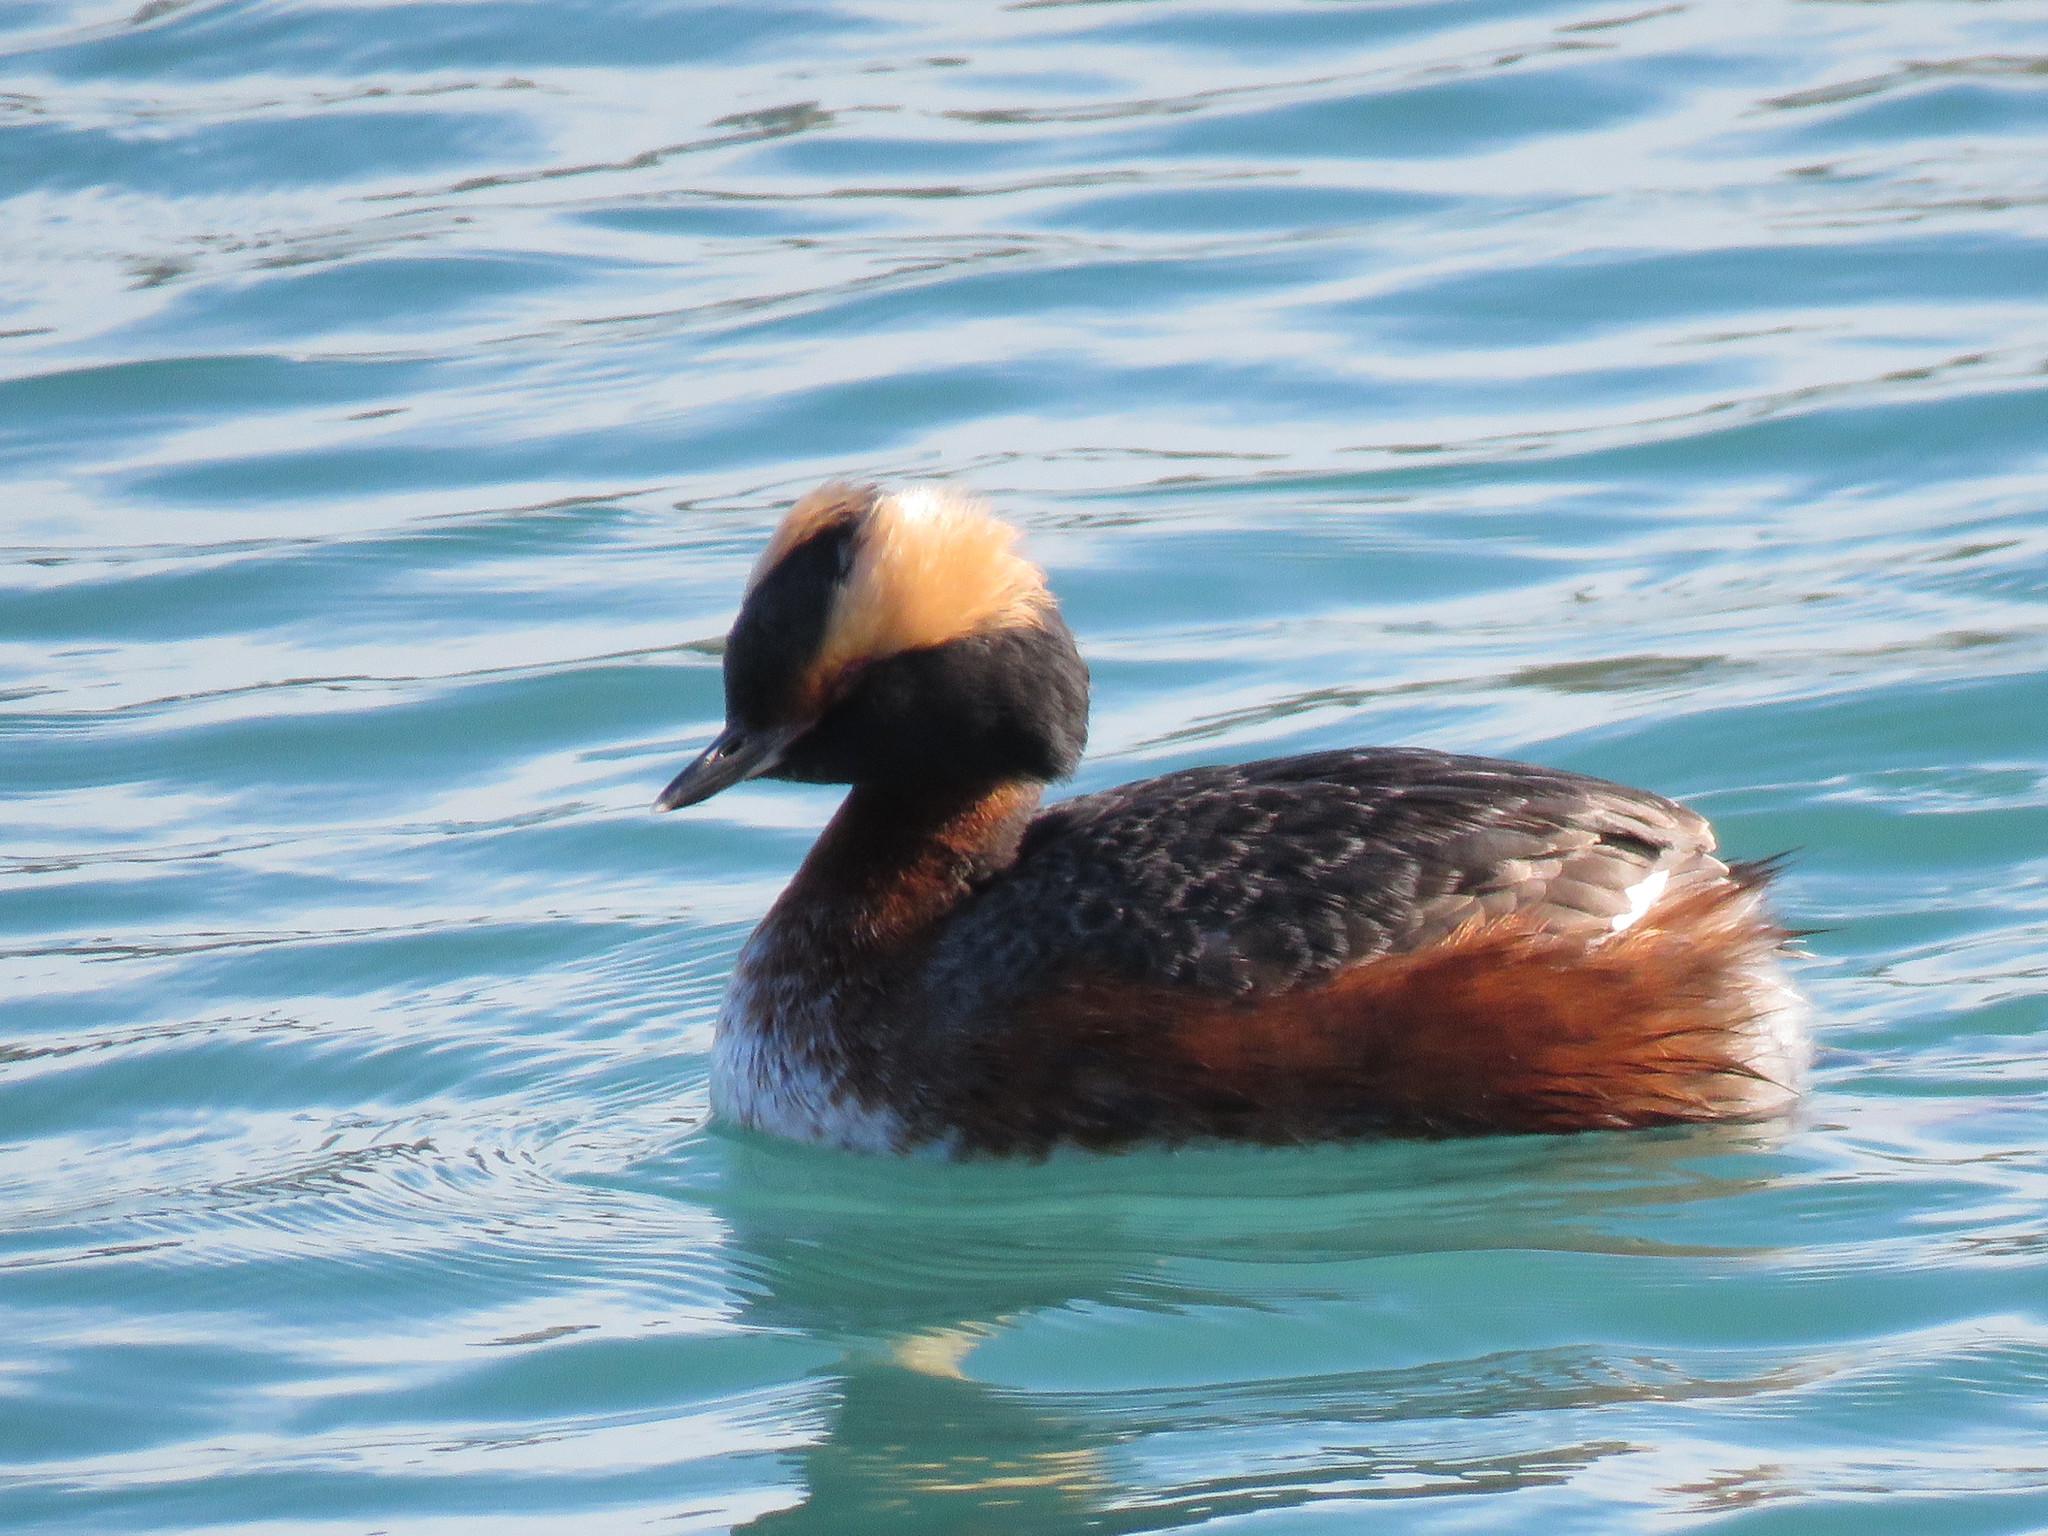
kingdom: Animalia
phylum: Chordata
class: Aves
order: Podicipediformes
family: Podicipedidae
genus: Podiceps
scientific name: Podiceps auritus
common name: Horned grebe
